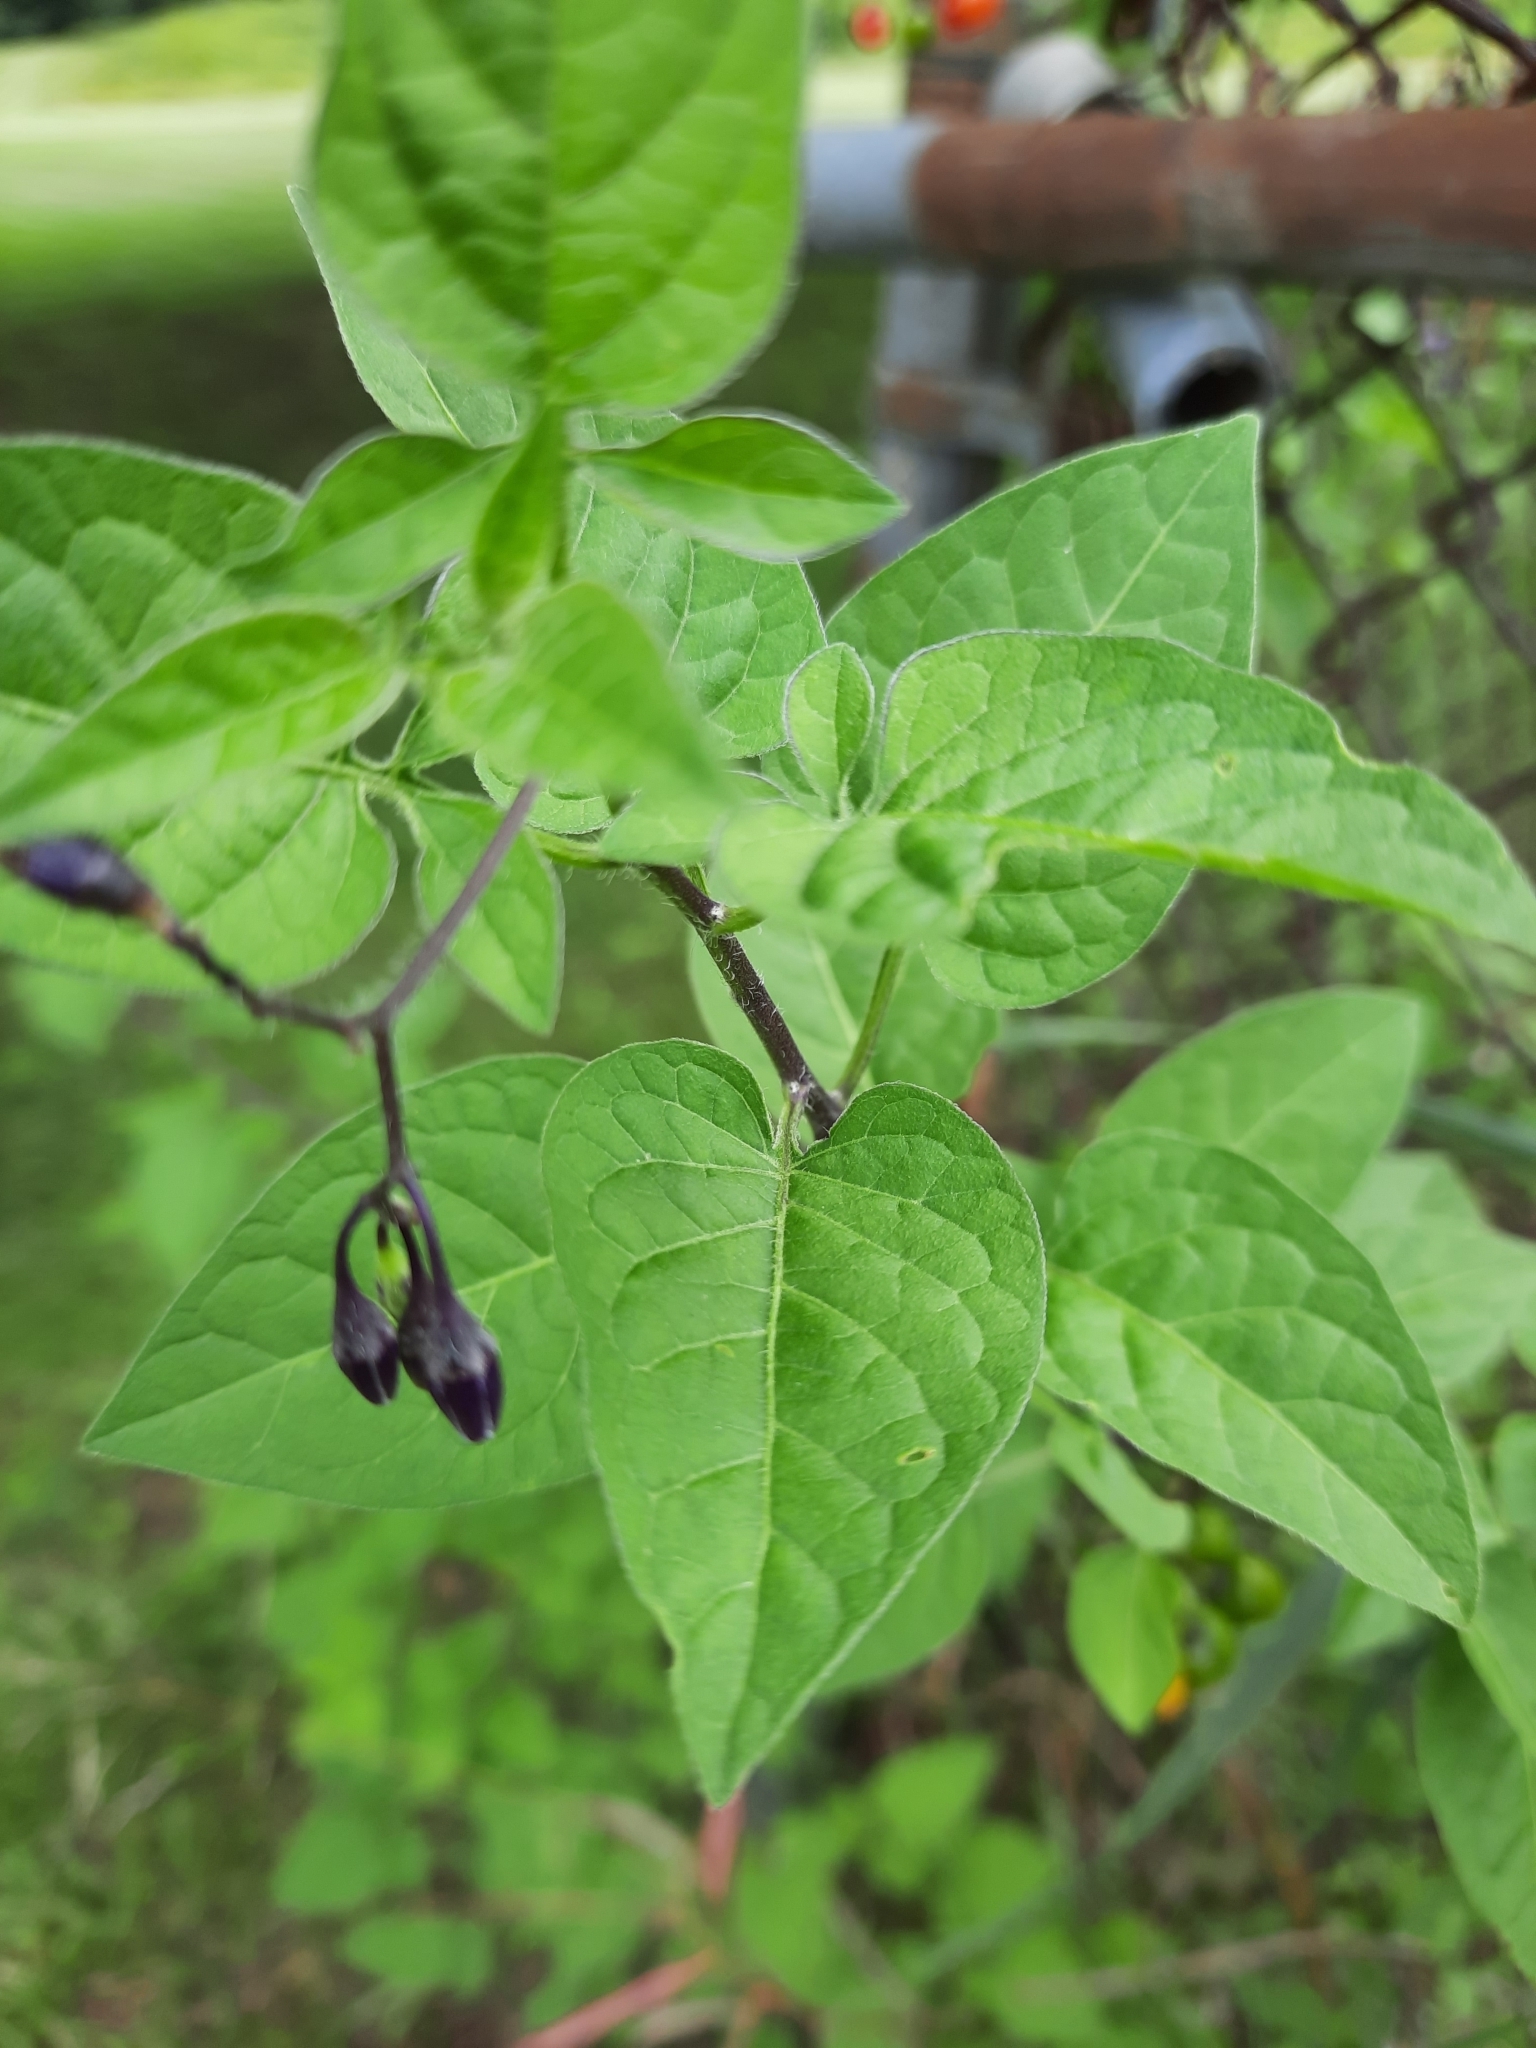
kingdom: Plantae
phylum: Tracheophyta
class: Magnoliopsida
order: Solanales
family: Solanaceae
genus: Solanum
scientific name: Solanum dulcamara
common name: Climbing nightshade
